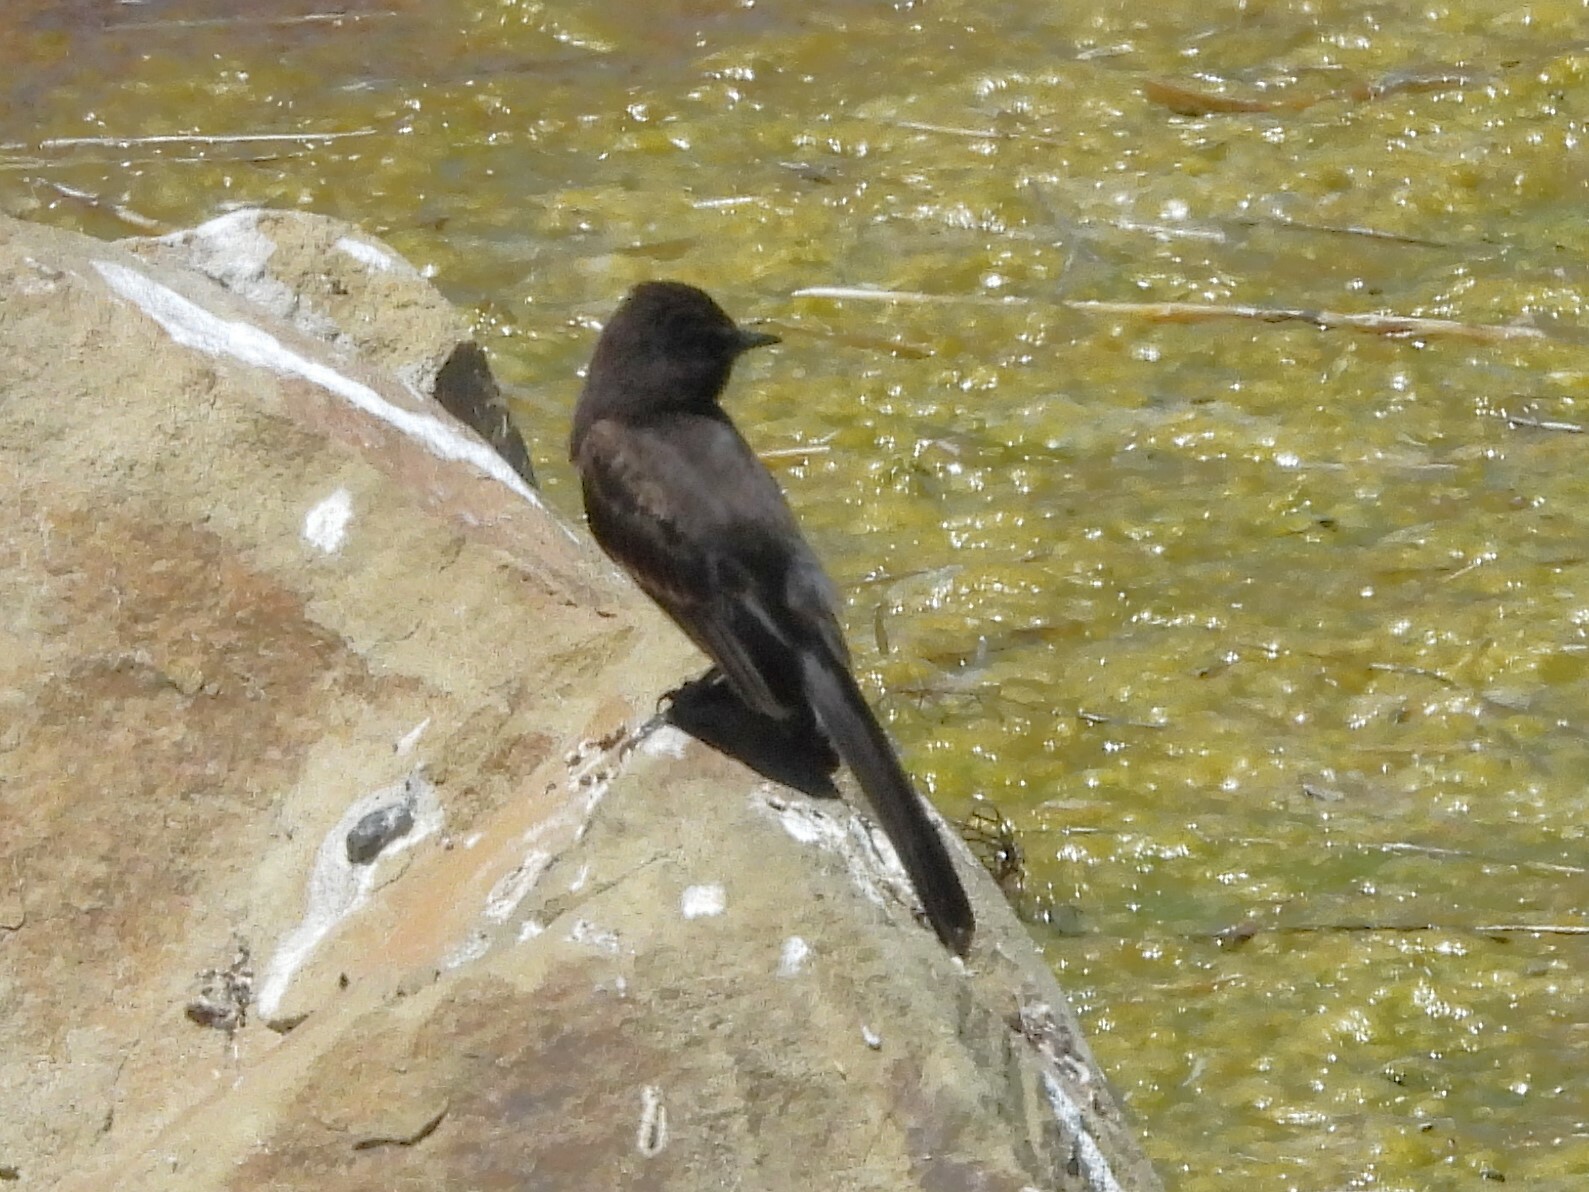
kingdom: Animalia
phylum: Chordata
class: Aves
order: Passeriformes
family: Tyrannidae
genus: Sayornis
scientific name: Sayornis nigricans
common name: Black phoebe
